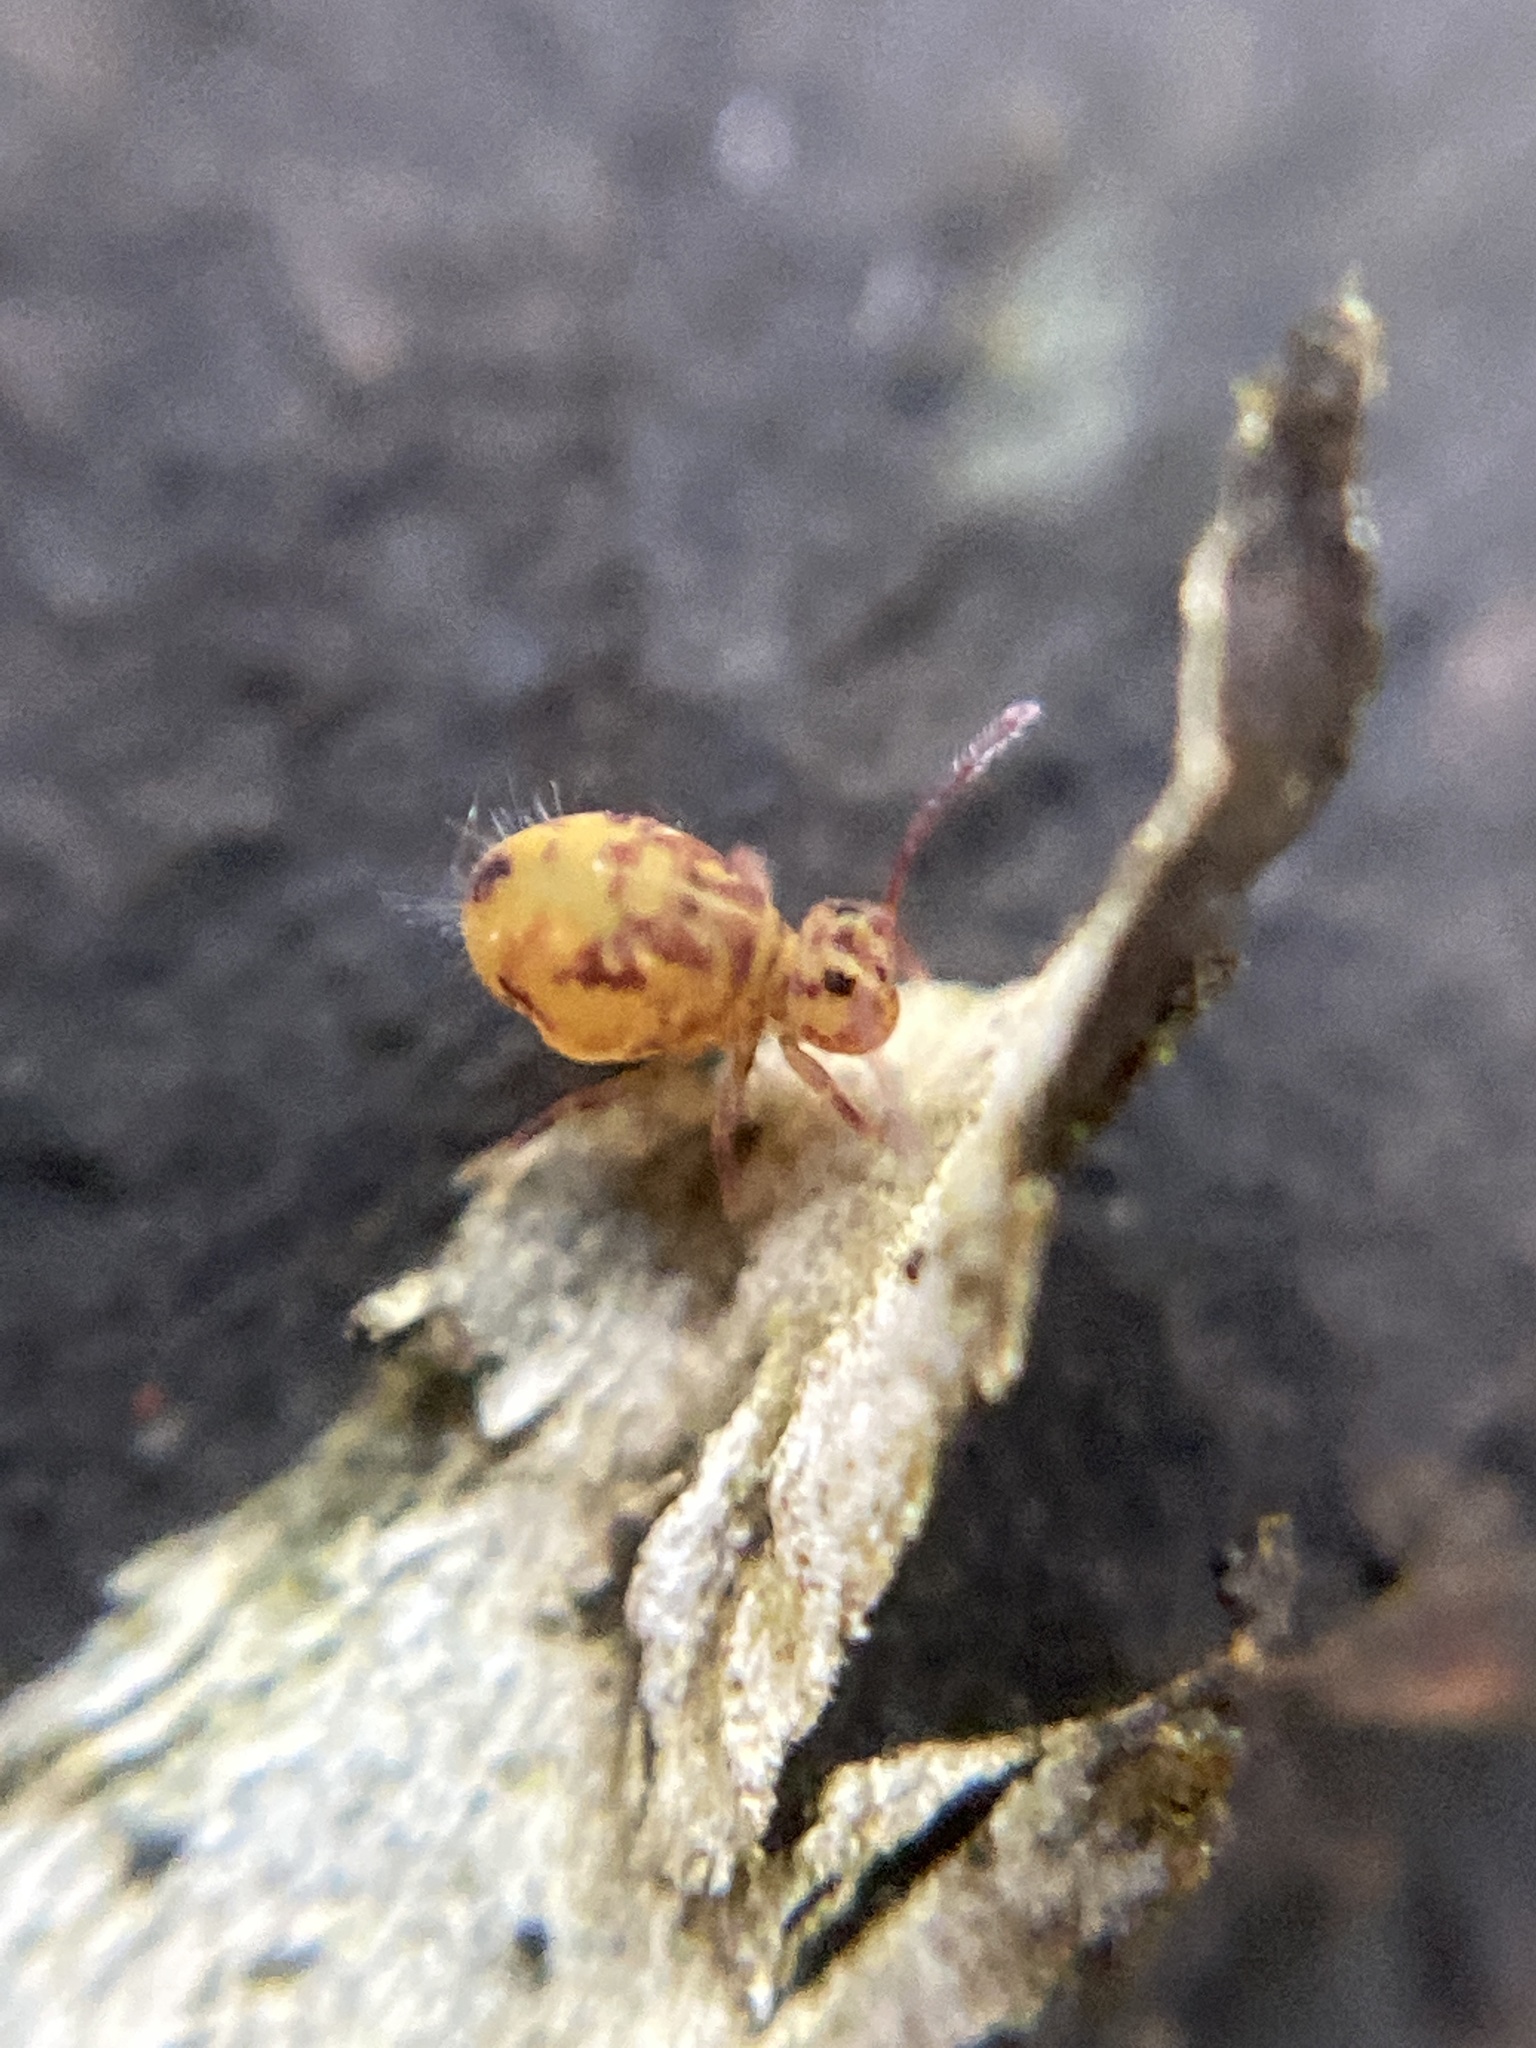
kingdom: Animalia
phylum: Arthropoda
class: Collembola
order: Symphypleona
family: Dicyrtomidae
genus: Dicyrtomina
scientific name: Dicyrtomina ornata
